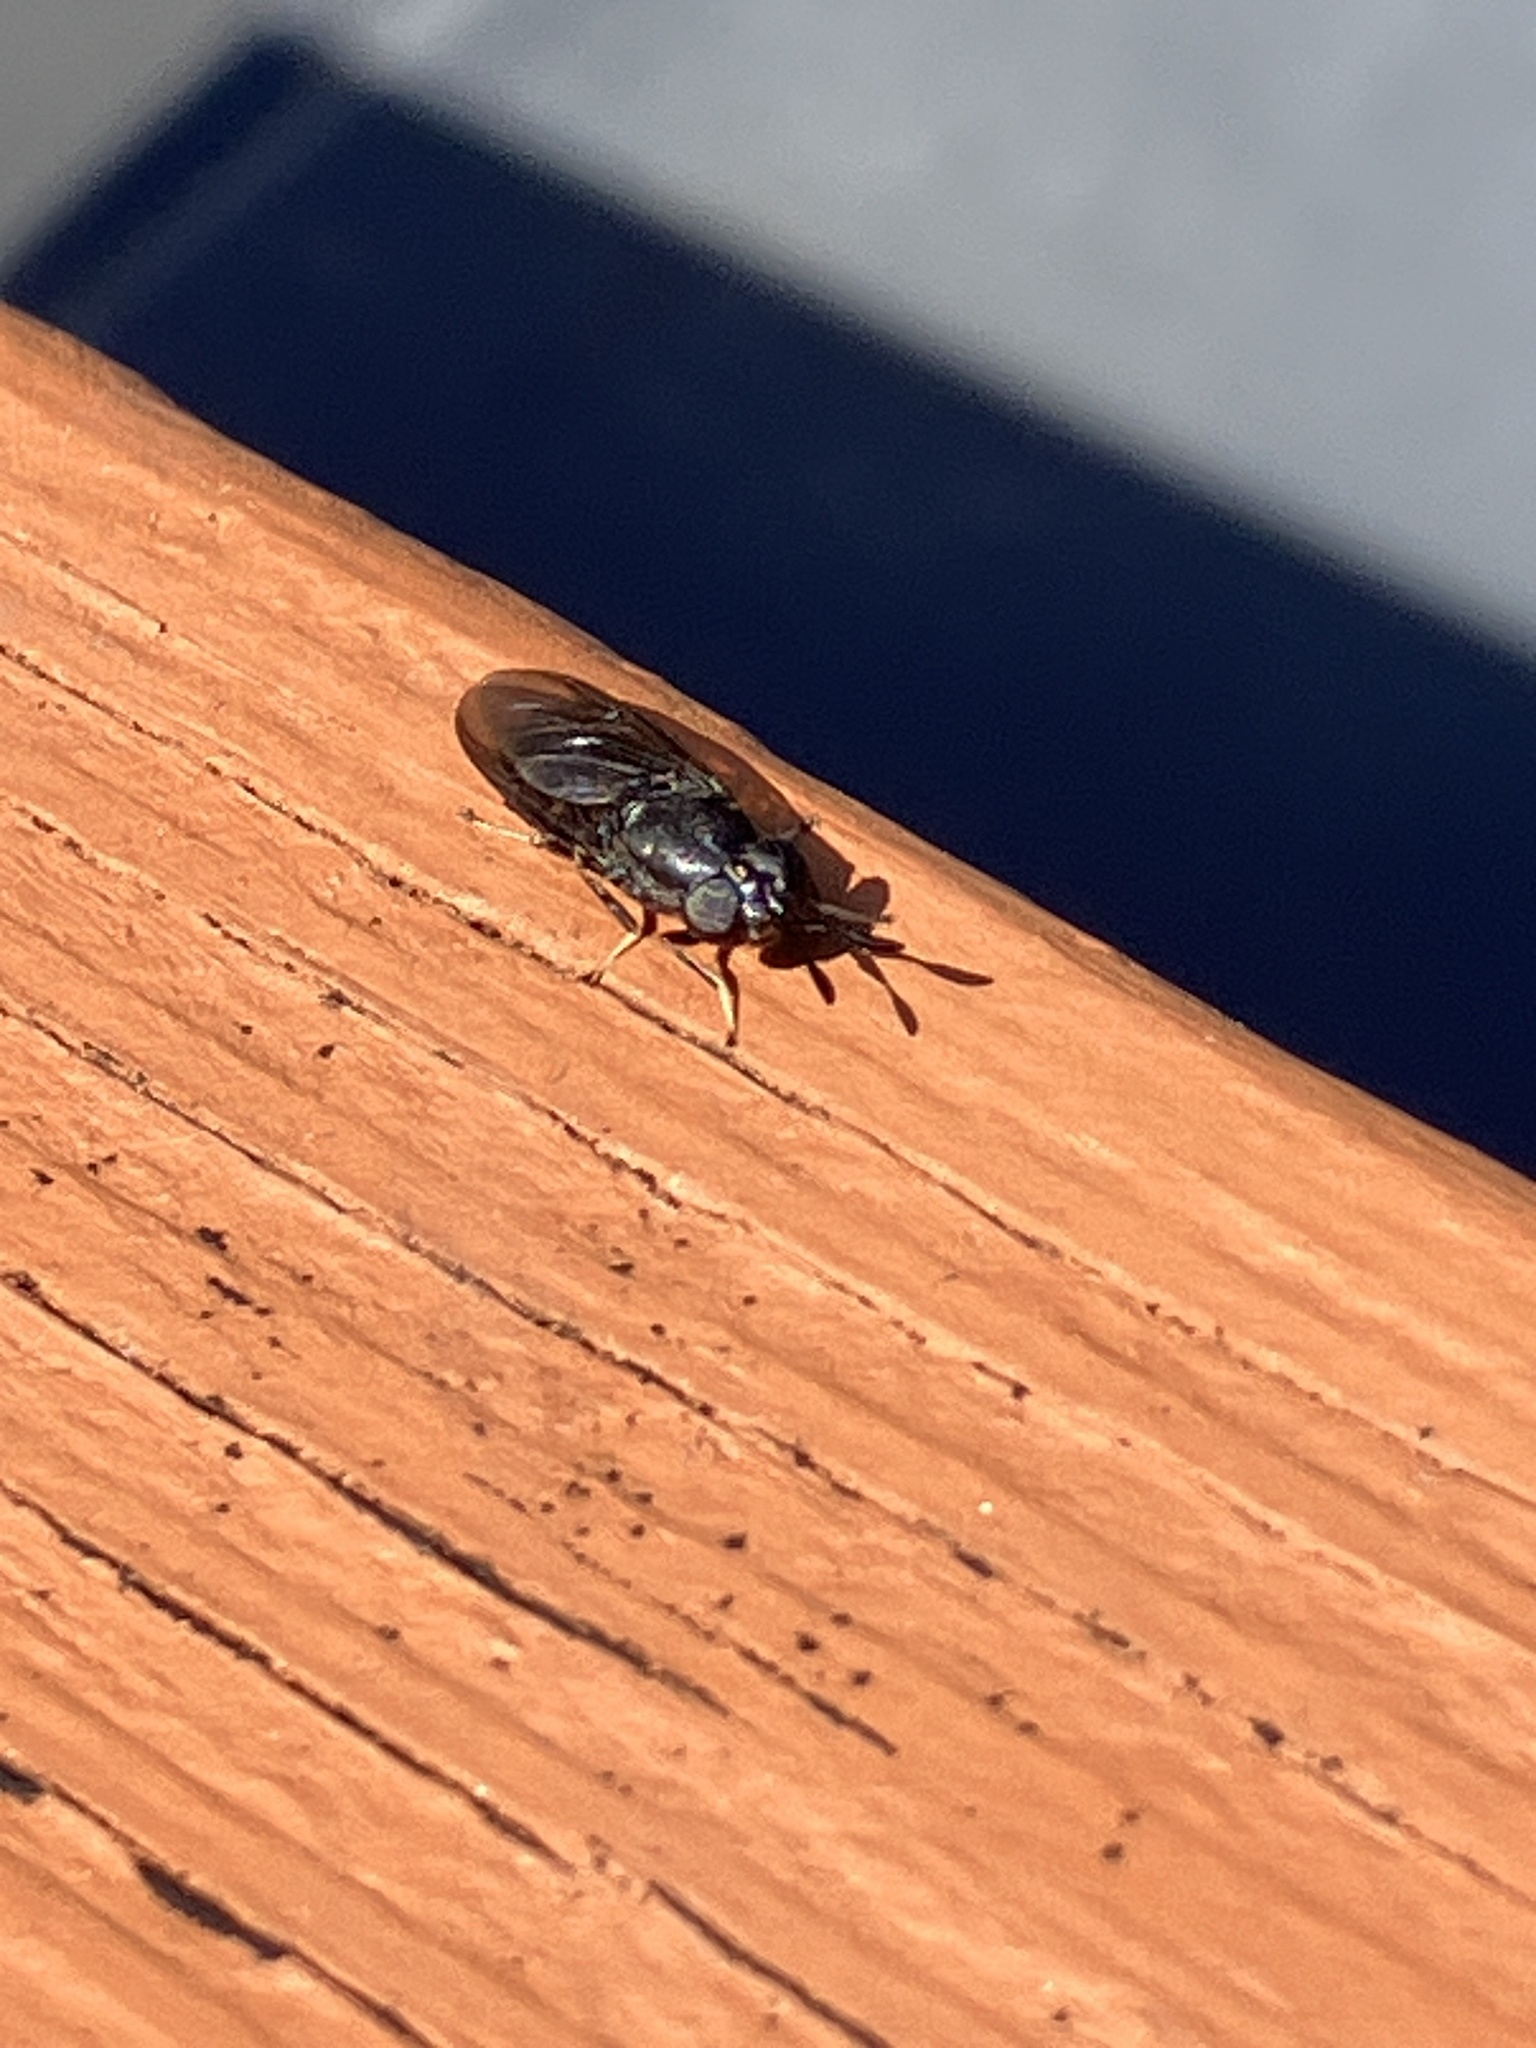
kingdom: Animalia
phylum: Arthropoda
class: Insecta
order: Diptera
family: Stratiomyidae
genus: Hermetia
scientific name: Hermetia sexmaculata
